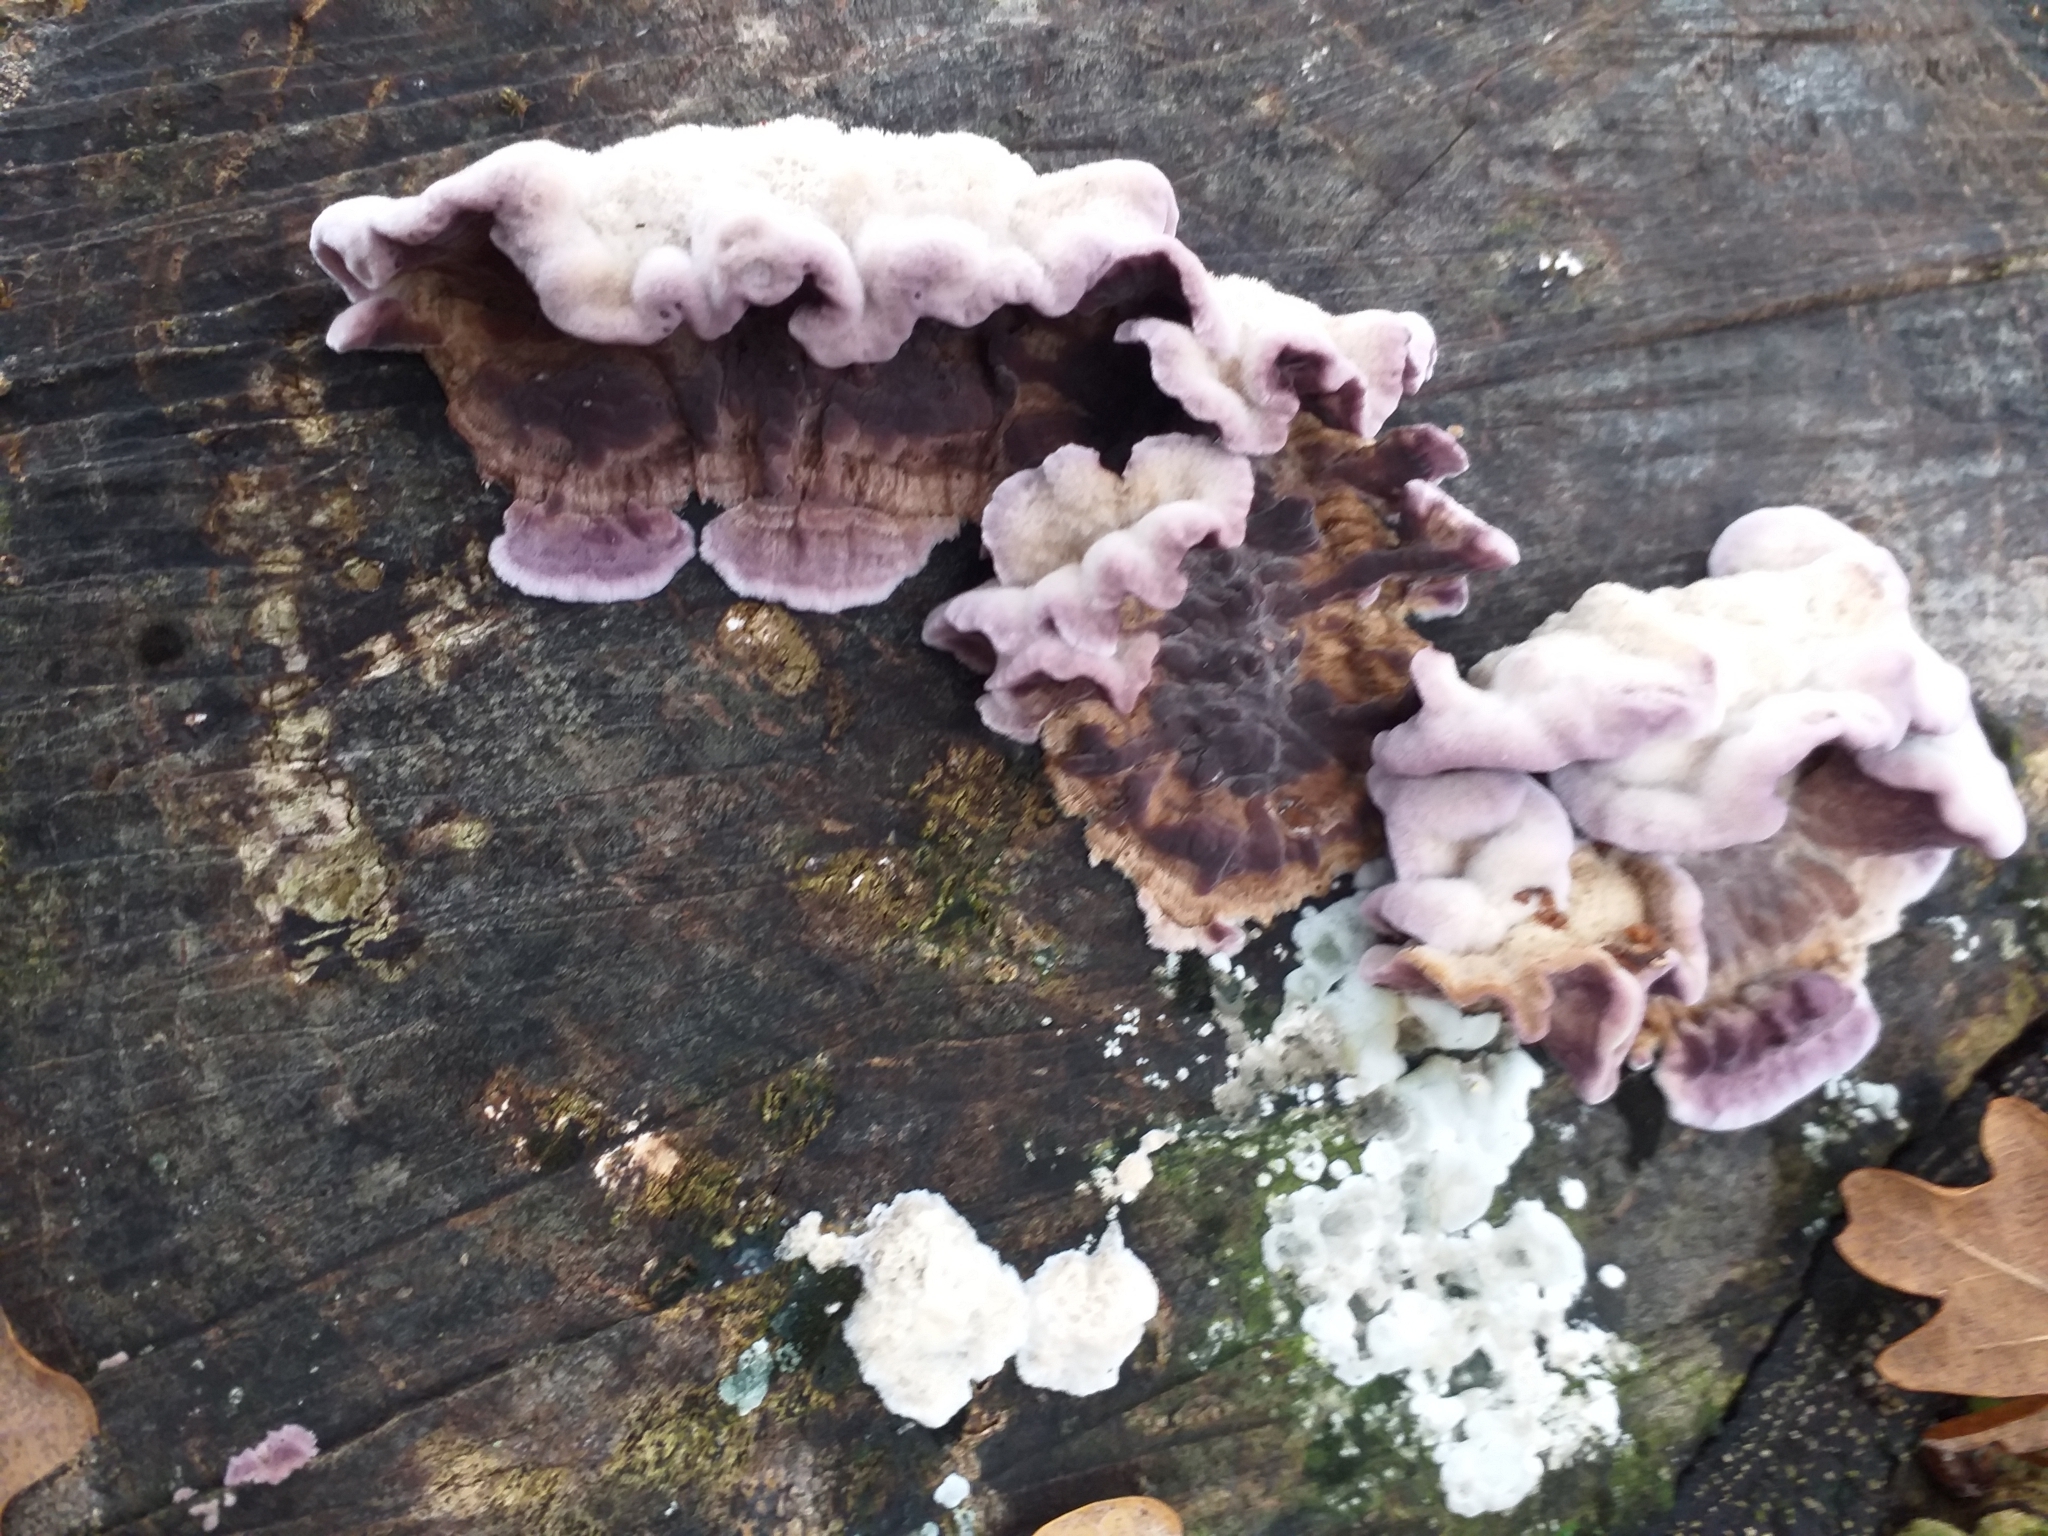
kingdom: Fungi
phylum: Basidiomycota
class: Agaricomycetes
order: Agaricales
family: Cyphellaceae
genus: Chondrostereum
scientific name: Chondrostereum purpureum
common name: Silver leaf disease
